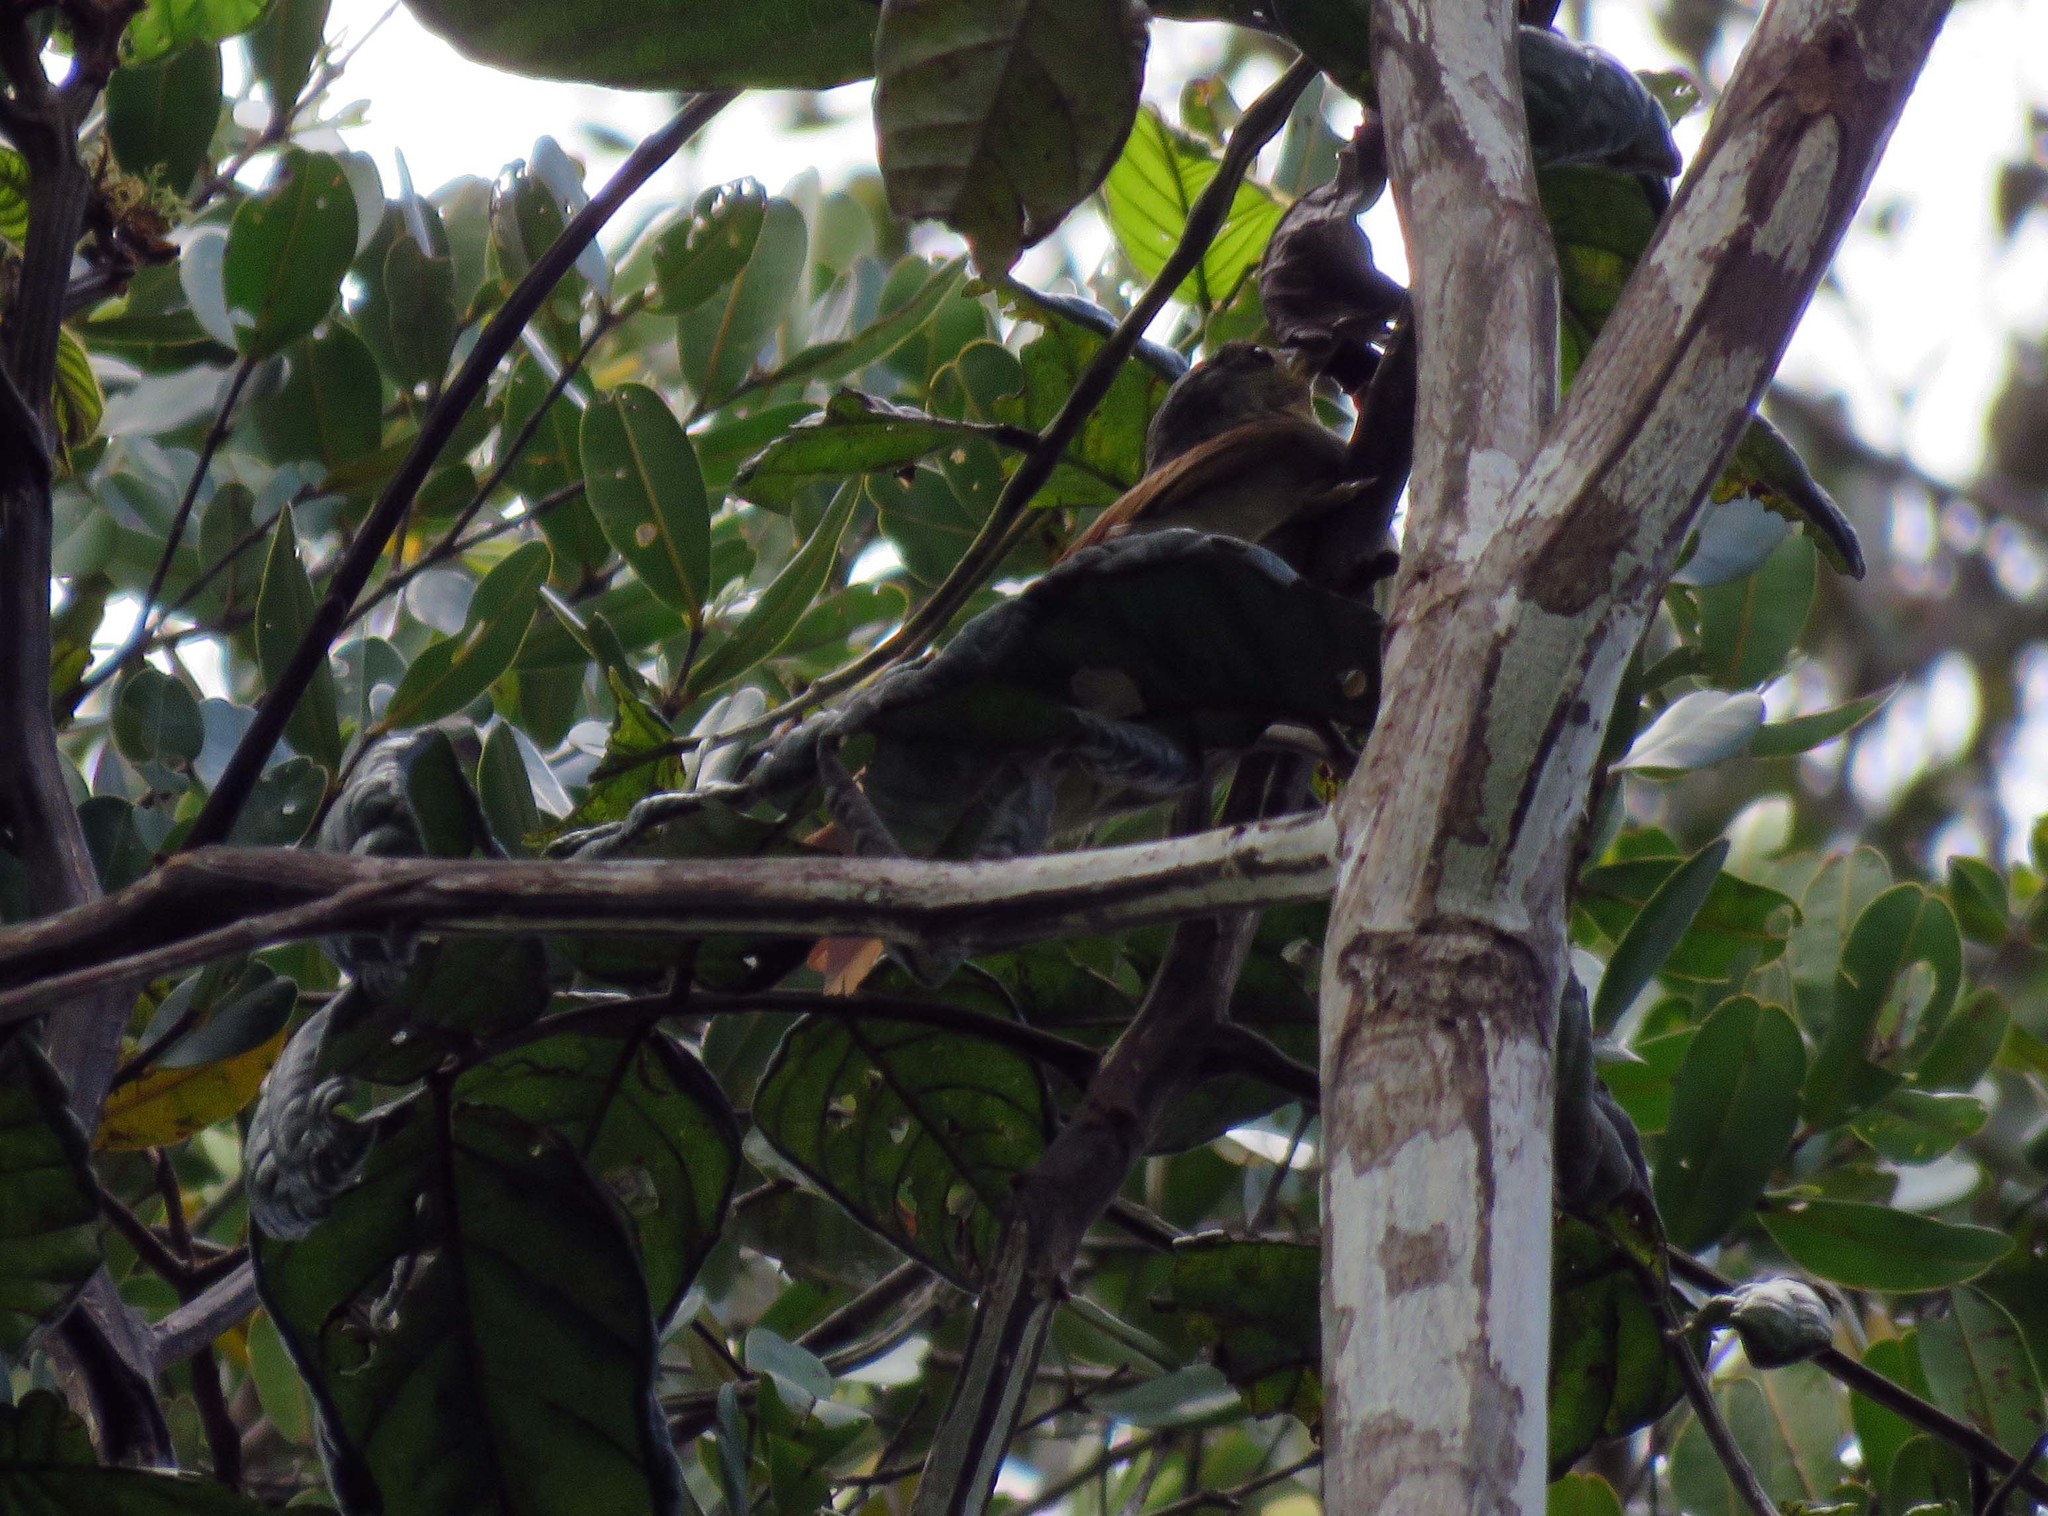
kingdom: Animalia
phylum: Chordata
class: Aves
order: Passeriformes
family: Furnariidae
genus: Philydor
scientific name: Philydor erythropterum
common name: Chestnut-winged foliage-gleaner
